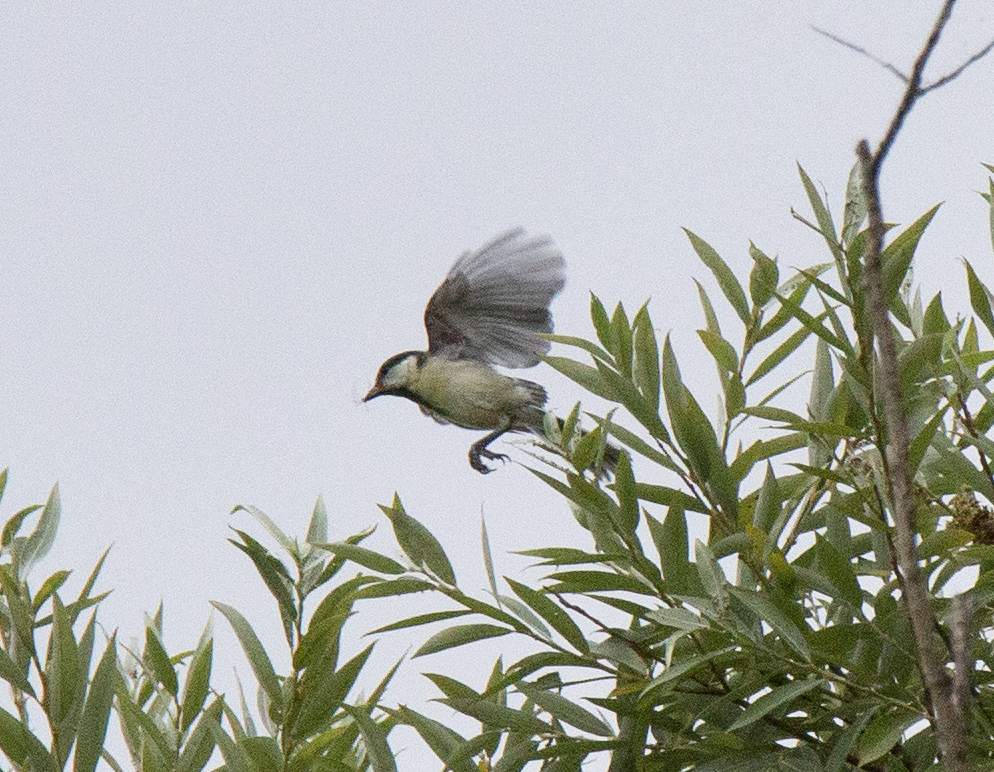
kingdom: Animalia
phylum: Chordata
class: Aves
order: Passeriformes
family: Paridae
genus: Parus
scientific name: Parus major
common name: Great tit
